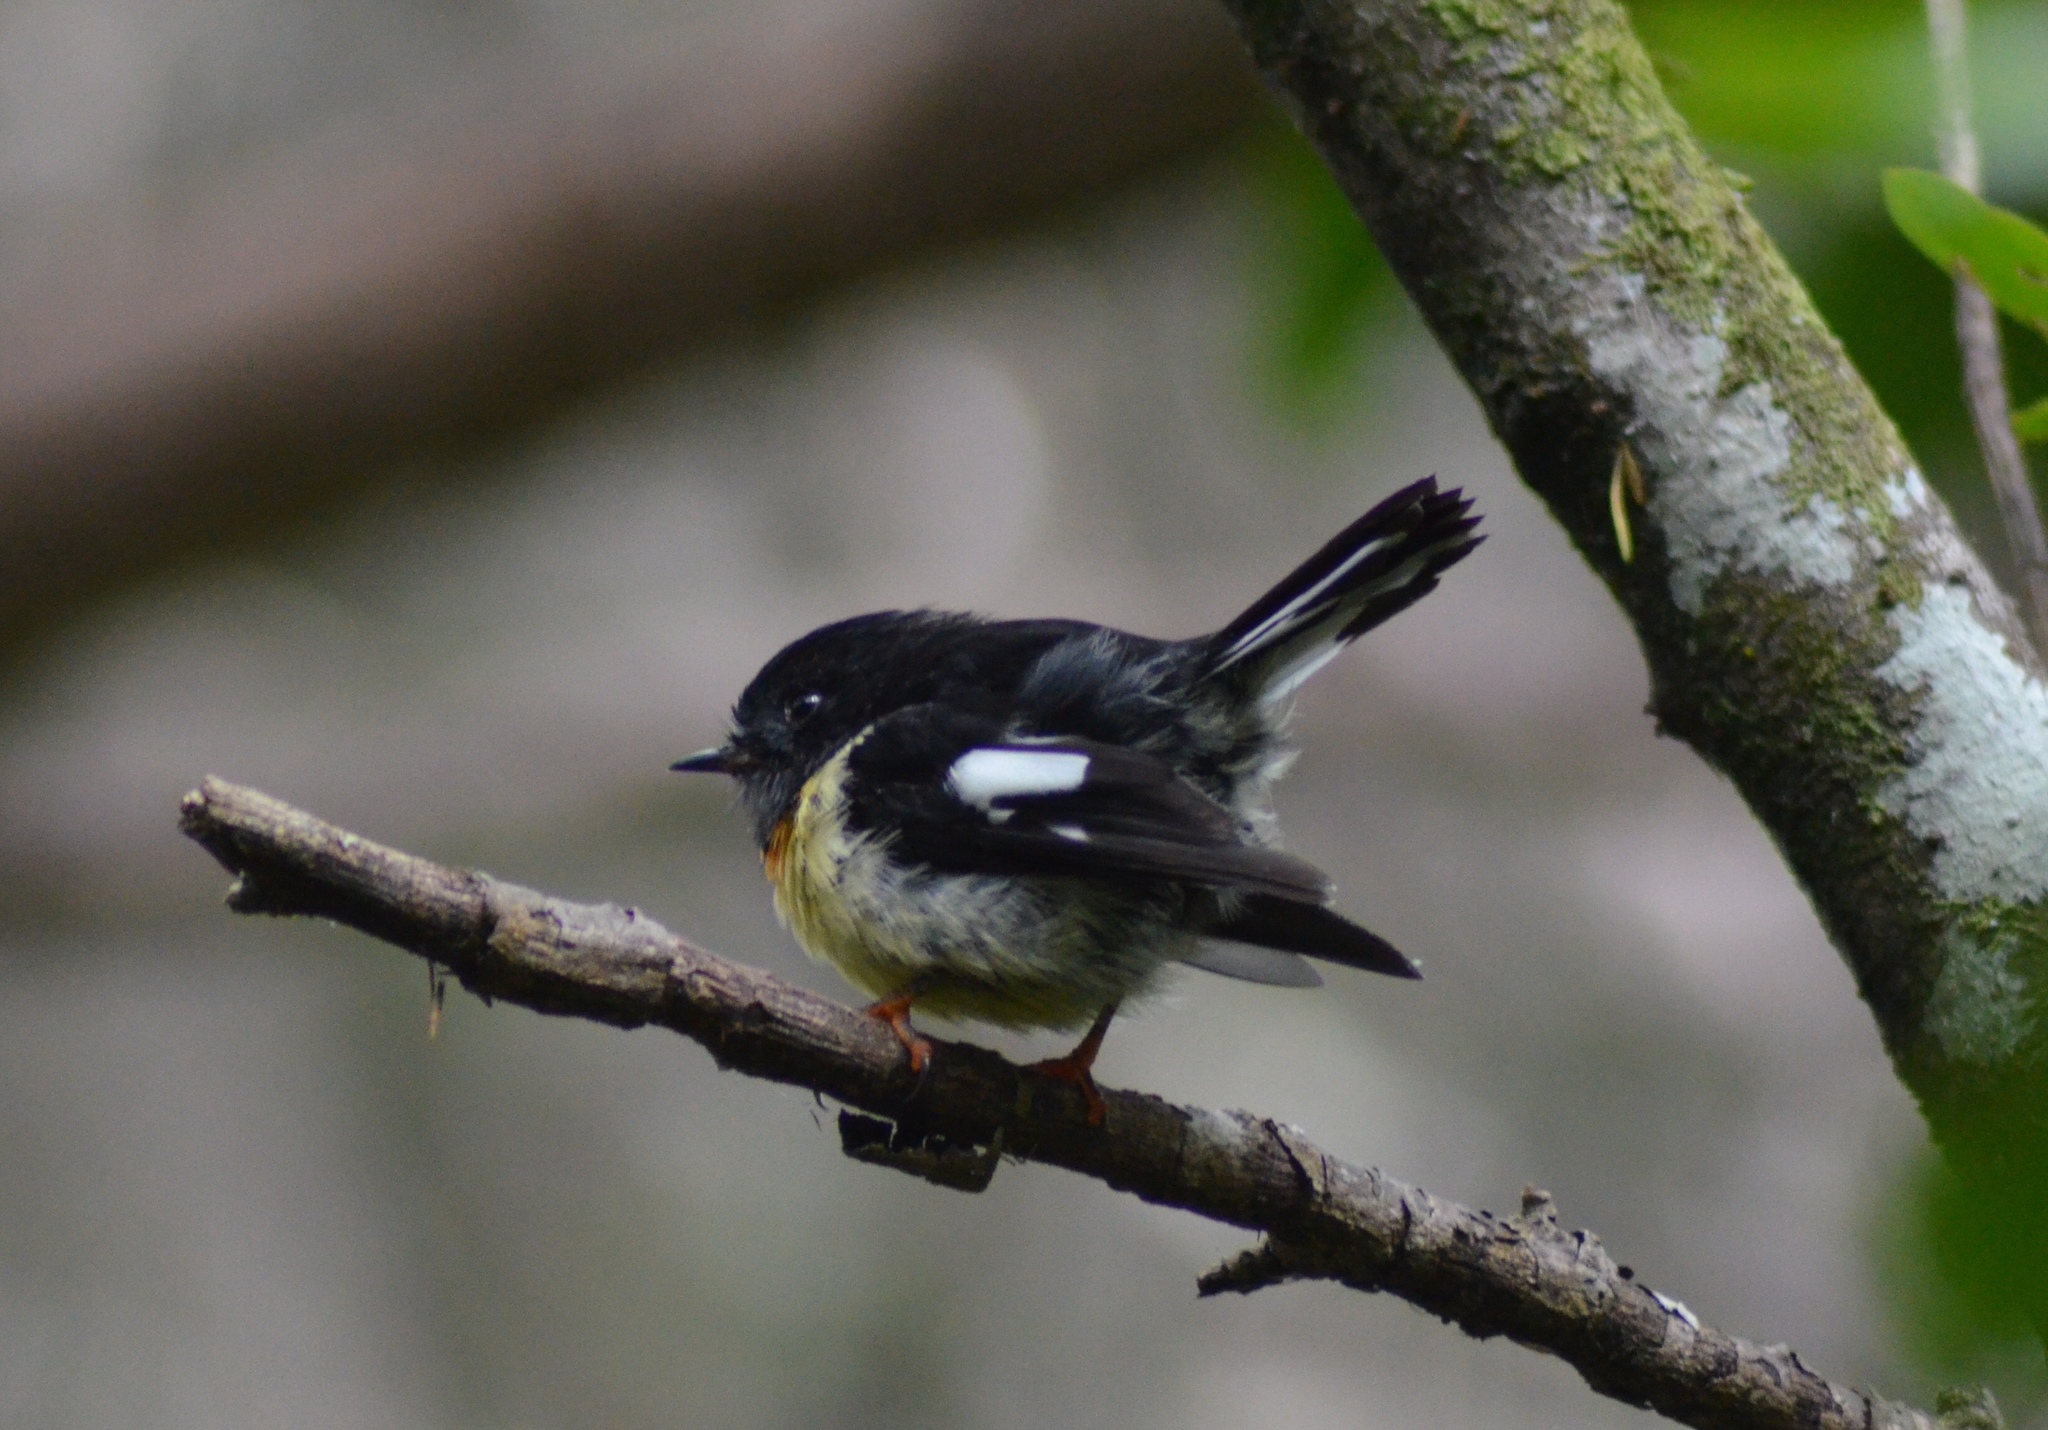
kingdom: Animalia
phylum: Chordata
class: Aves
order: Passeriformes
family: Petroicidae
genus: Petroica
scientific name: Petroica macrocephala
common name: Tomtit
